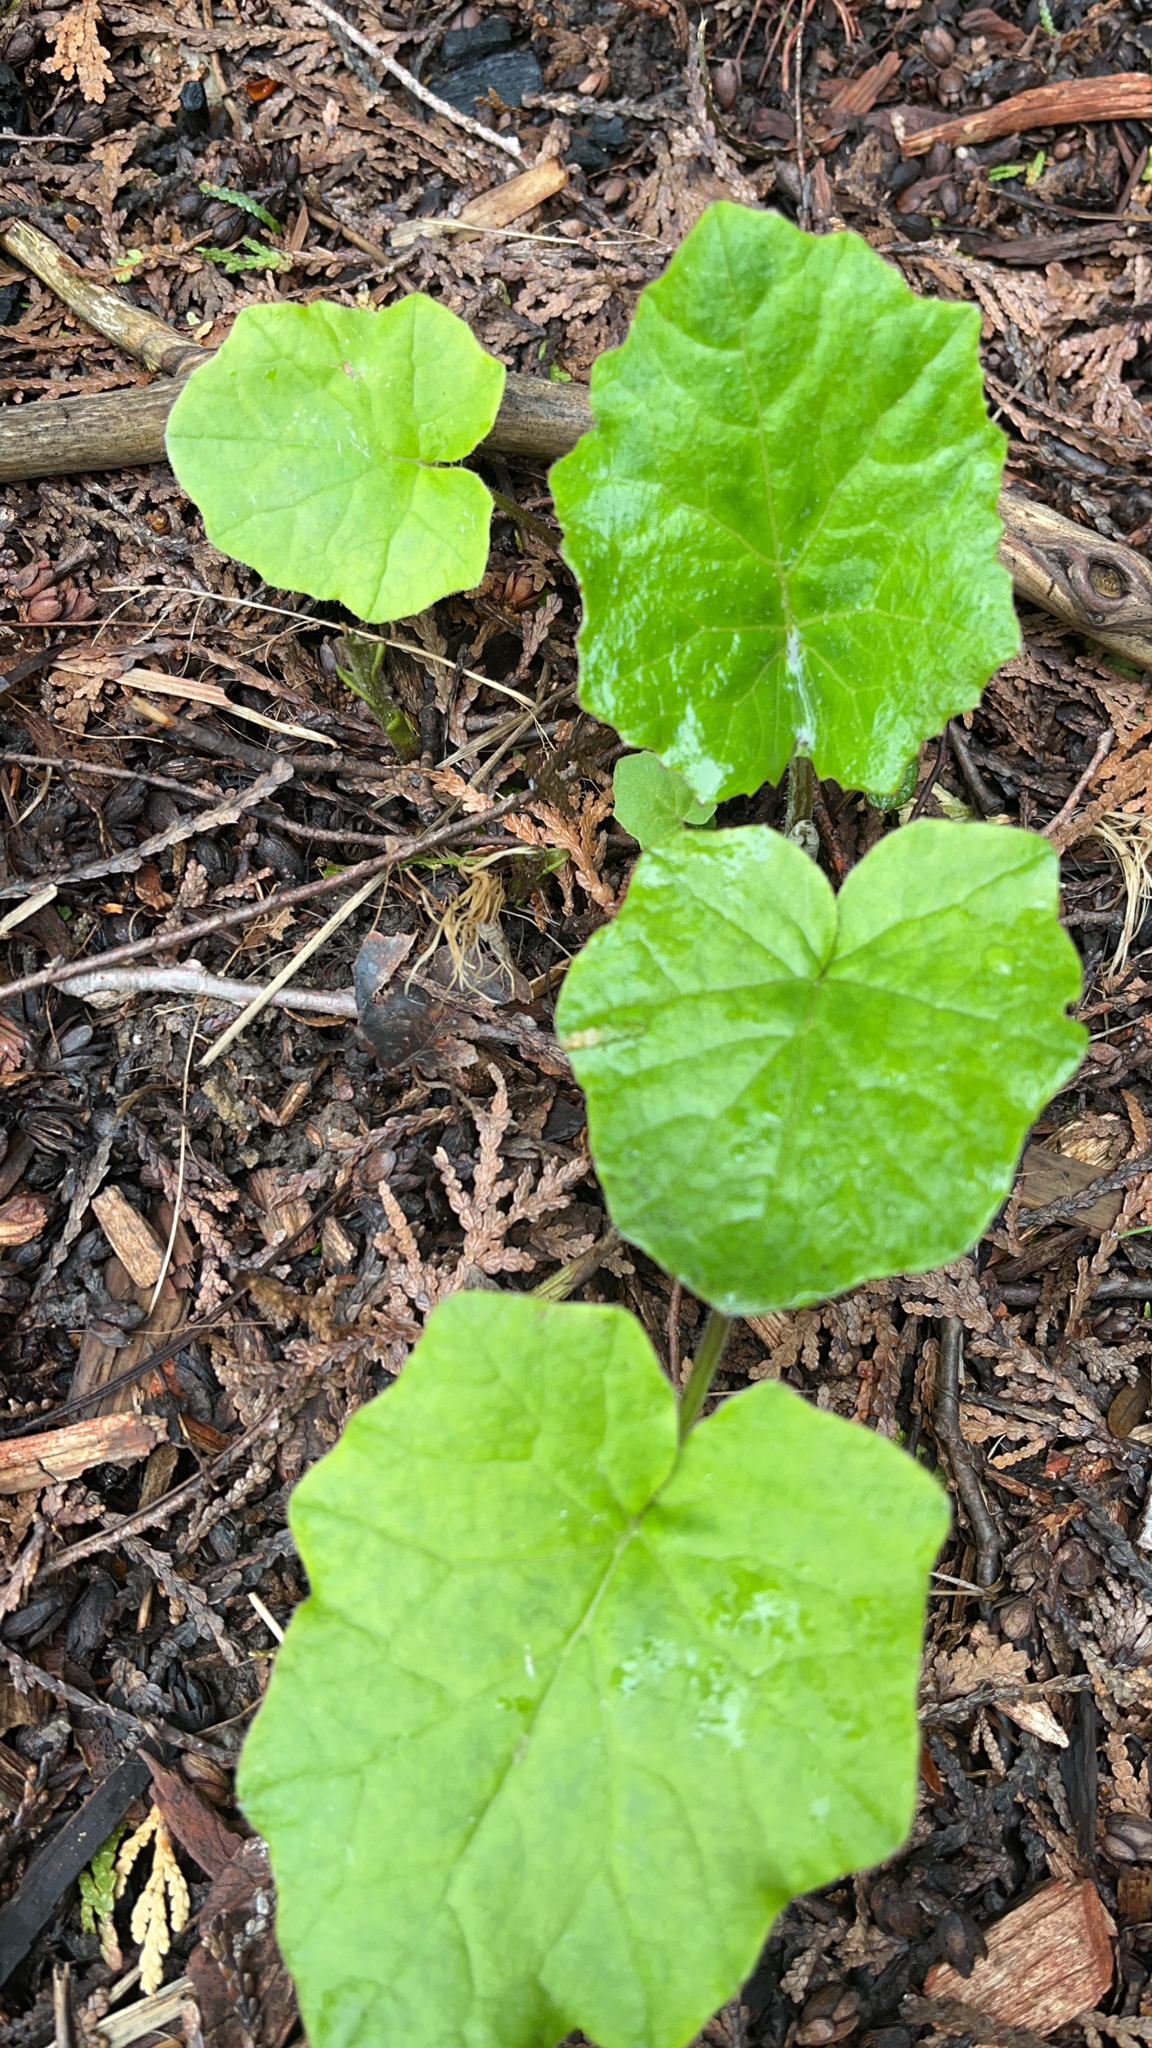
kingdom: Plantae
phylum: Tracheophyta
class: Magnoliopsida
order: Asterales
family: Asteraceae
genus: Tussilago
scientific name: Tussilago farfara
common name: Coltsfoot
